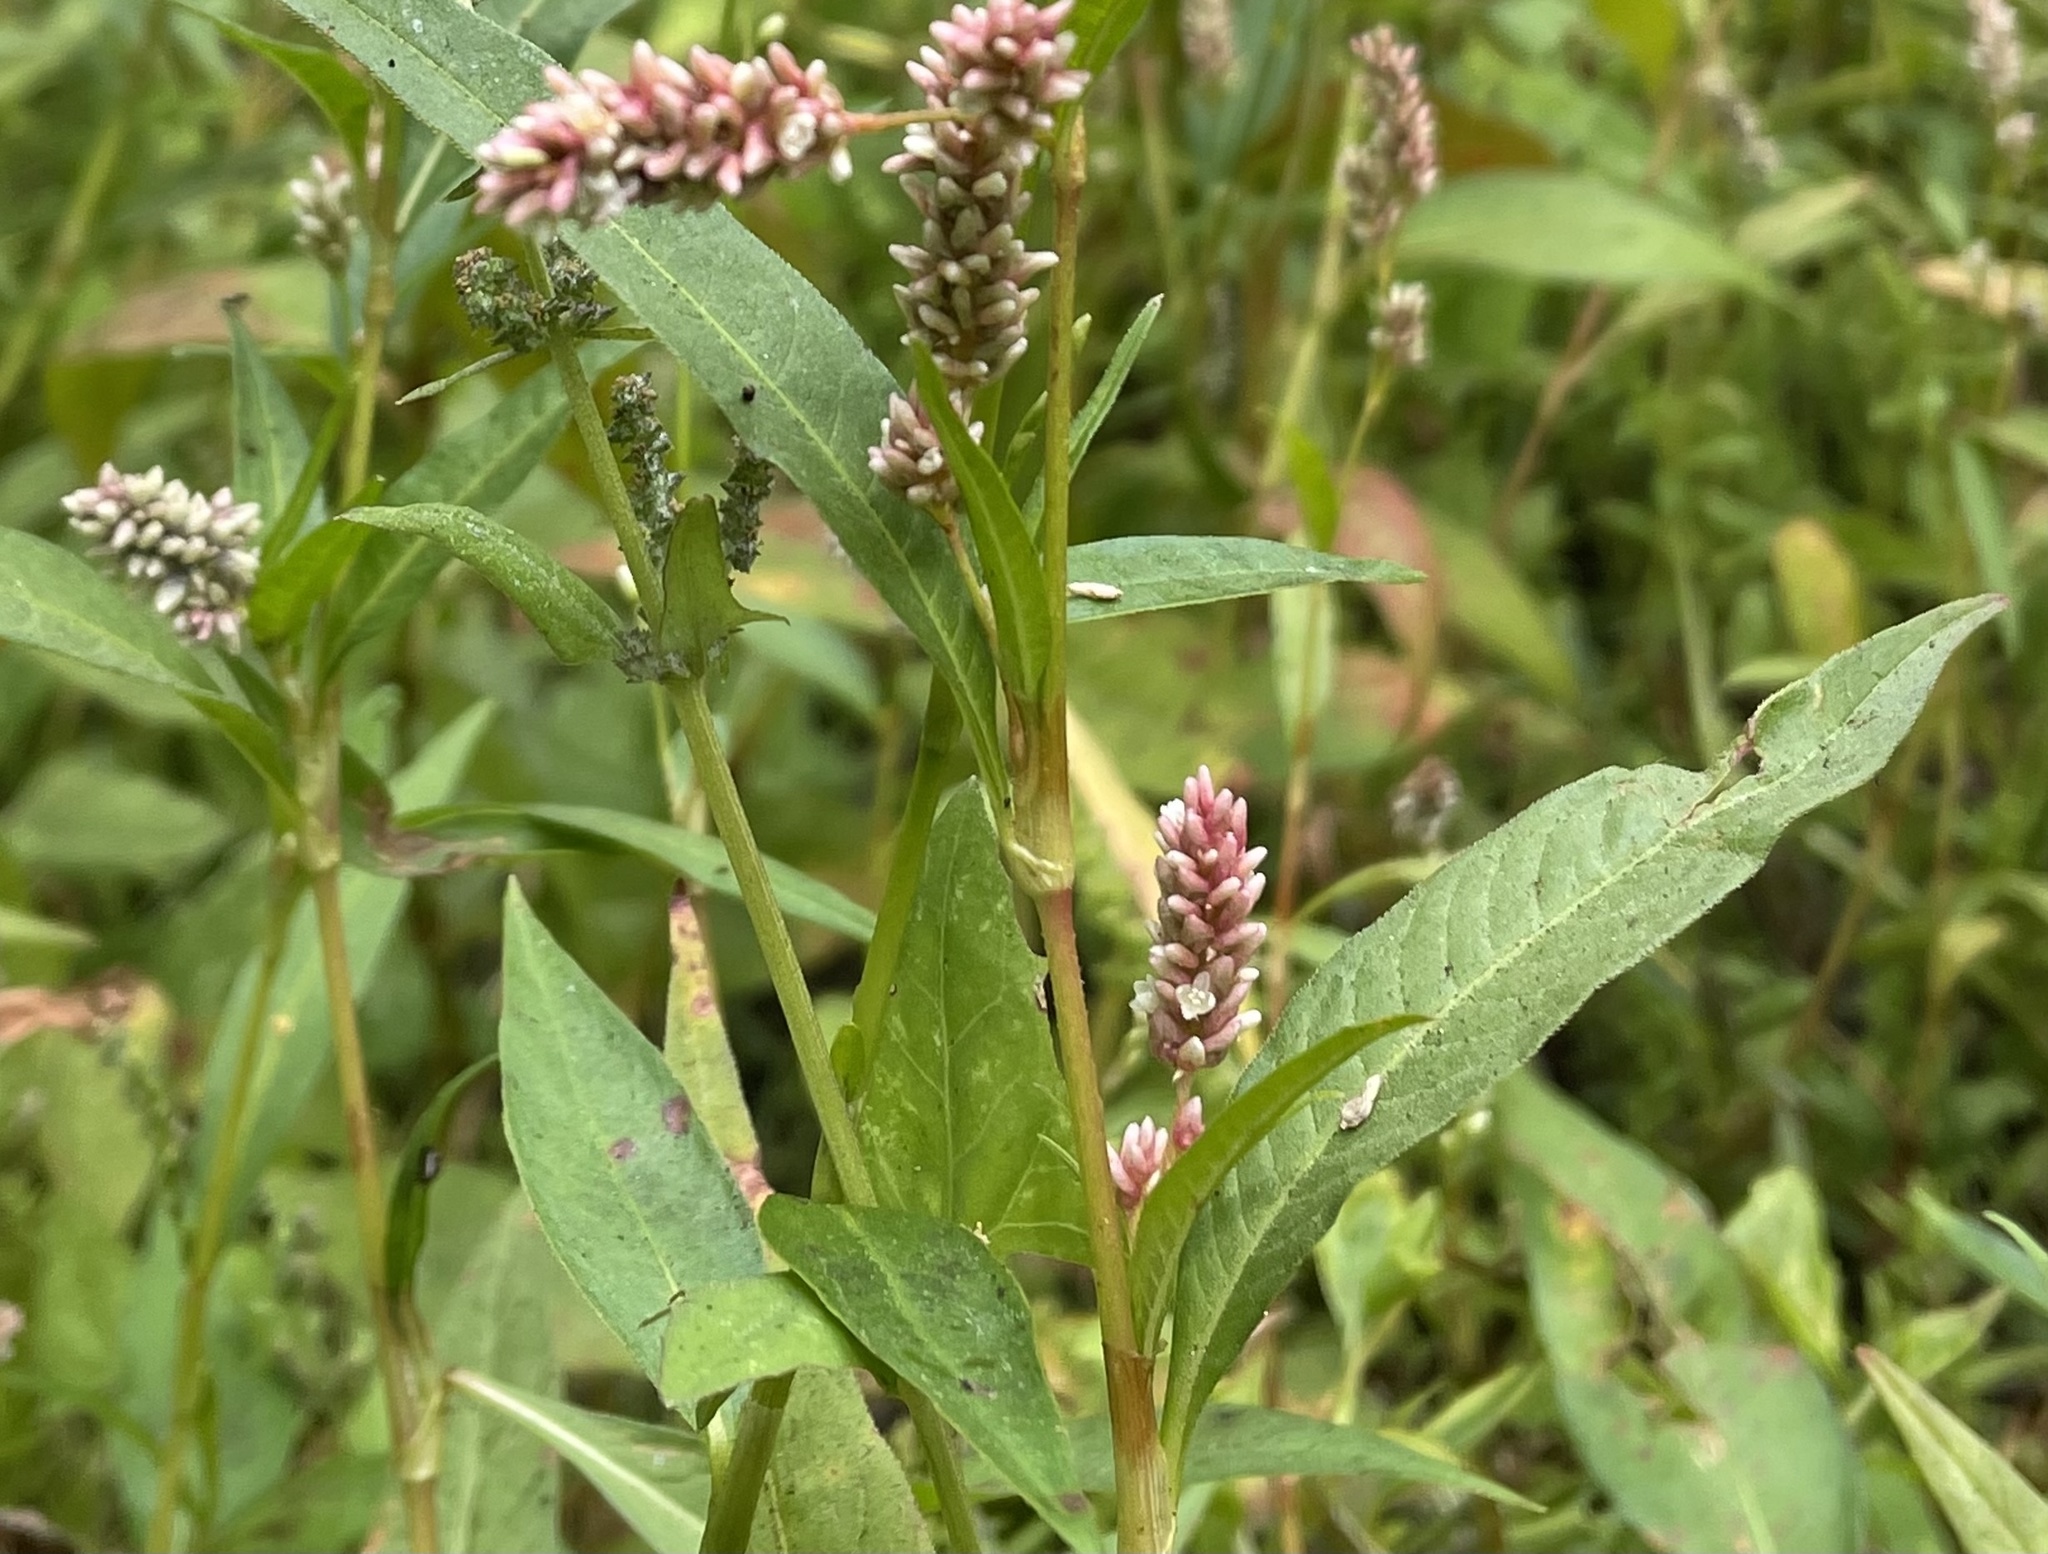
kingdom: Plantae
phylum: Tracheophyta
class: Magnoliopsida
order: Caryophyllales
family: Polygonaceae
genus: Persicaria
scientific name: Persicaria lapathifolia
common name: Curlytop knotweed
